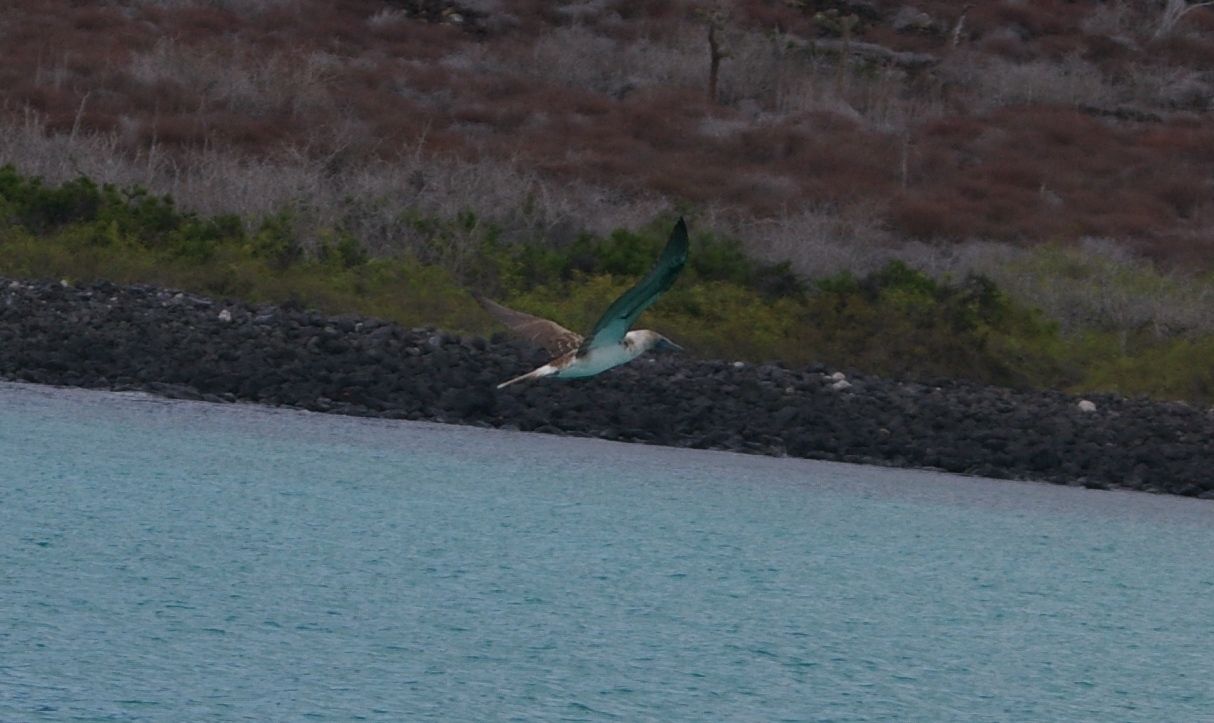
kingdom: Animalia
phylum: Chordata
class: Aves
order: Suliformes
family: Sulidae
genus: Sula
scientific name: Sula nebouxii
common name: Blue-footed booby
